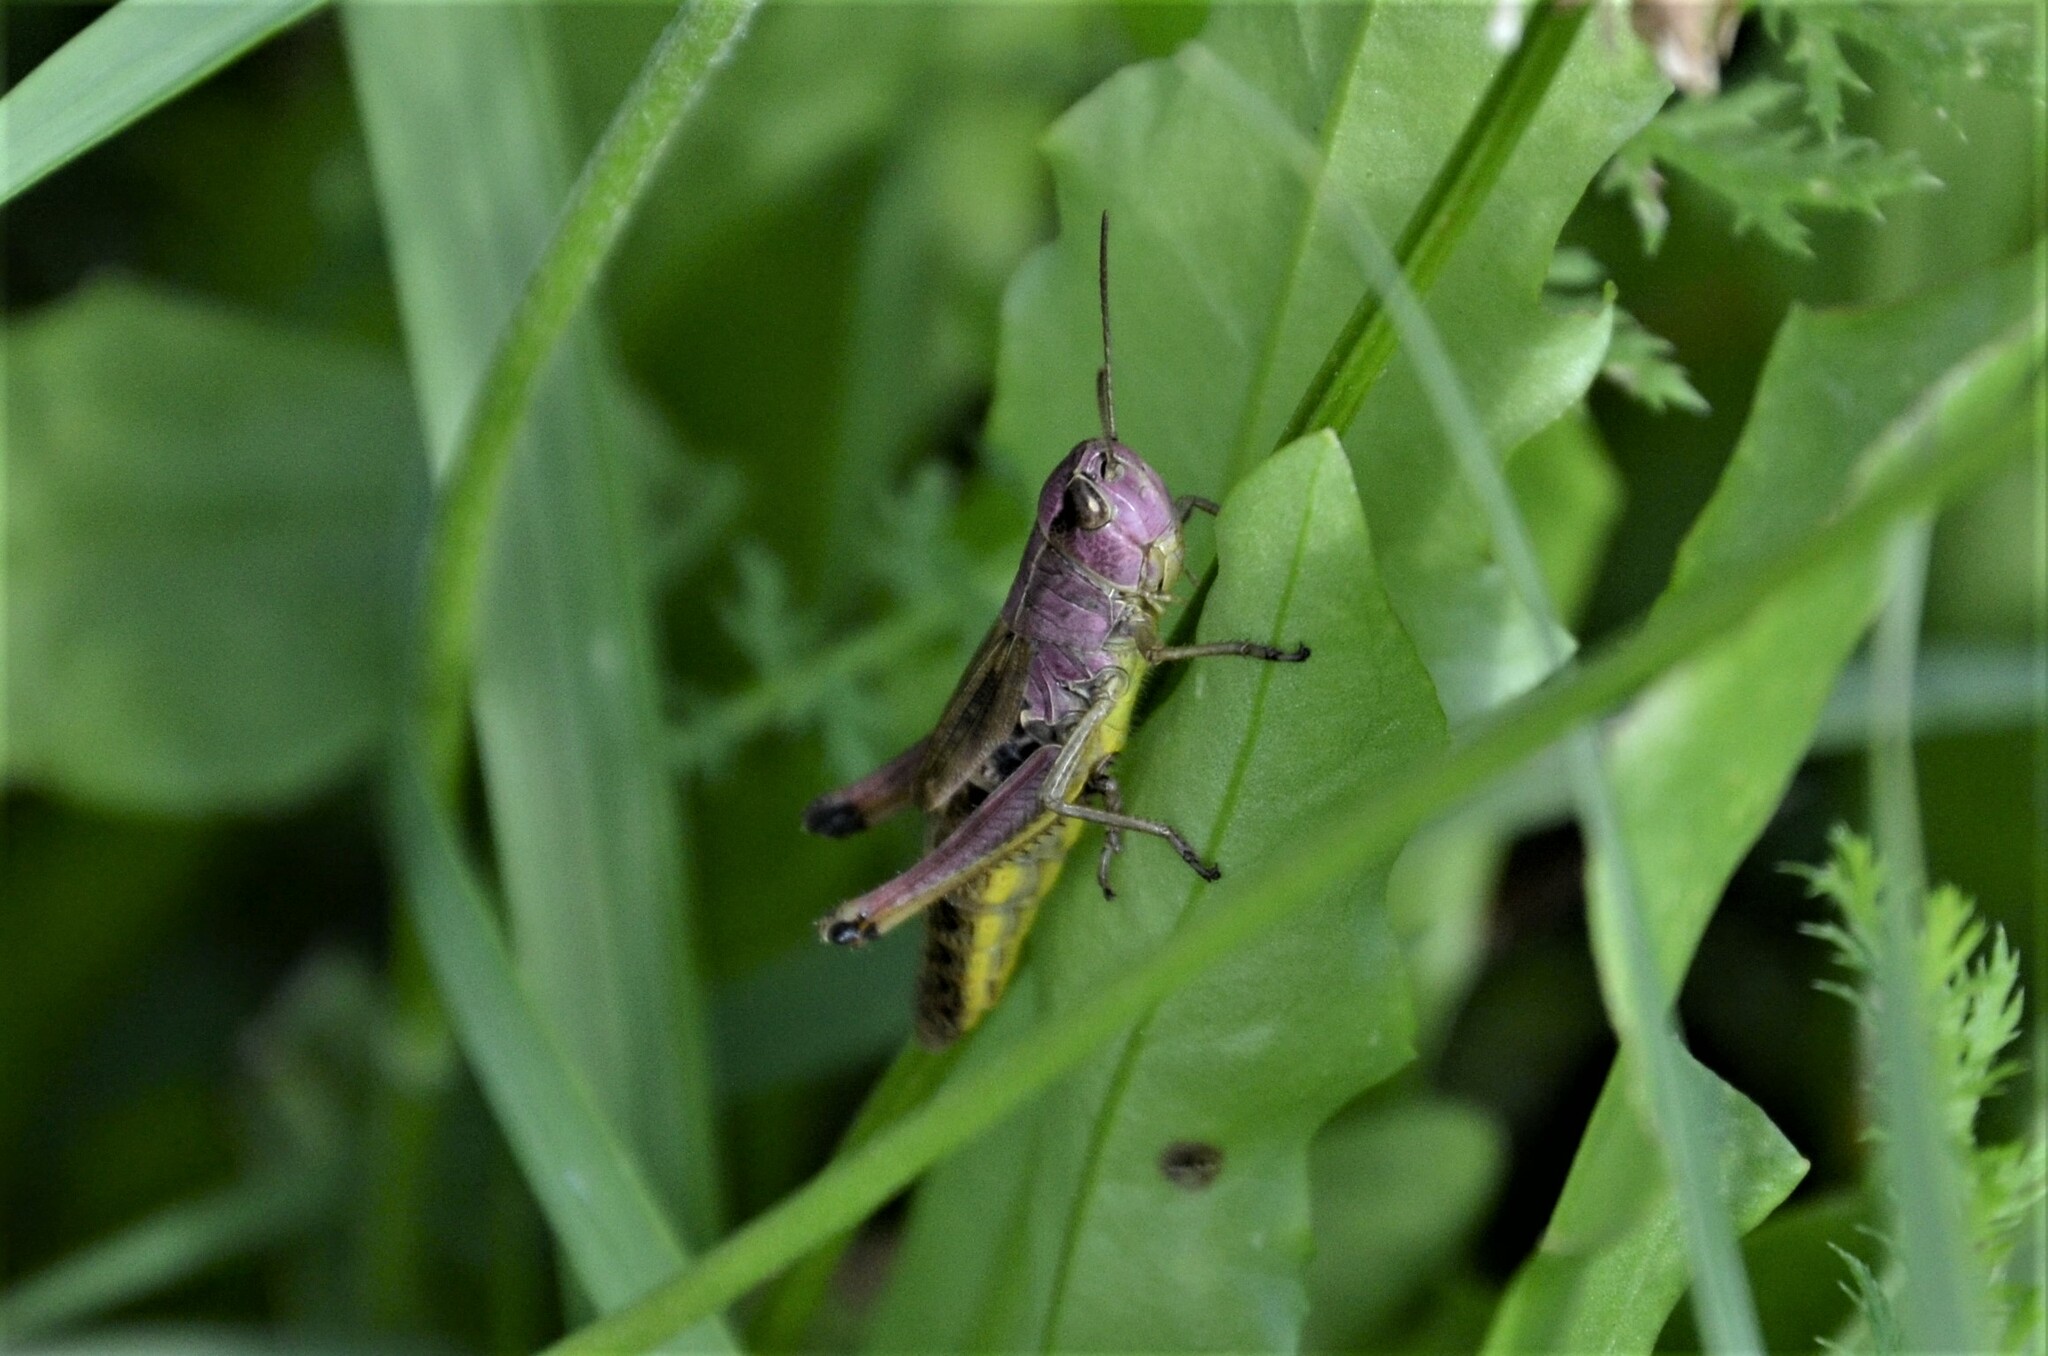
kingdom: Animalia
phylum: Arthropoda
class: Insecta
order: Orthoptera
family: Acrididae
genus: Pseudochorthippus
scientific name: Pseudochorthippus parallelus
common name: Meadow grasshopper
